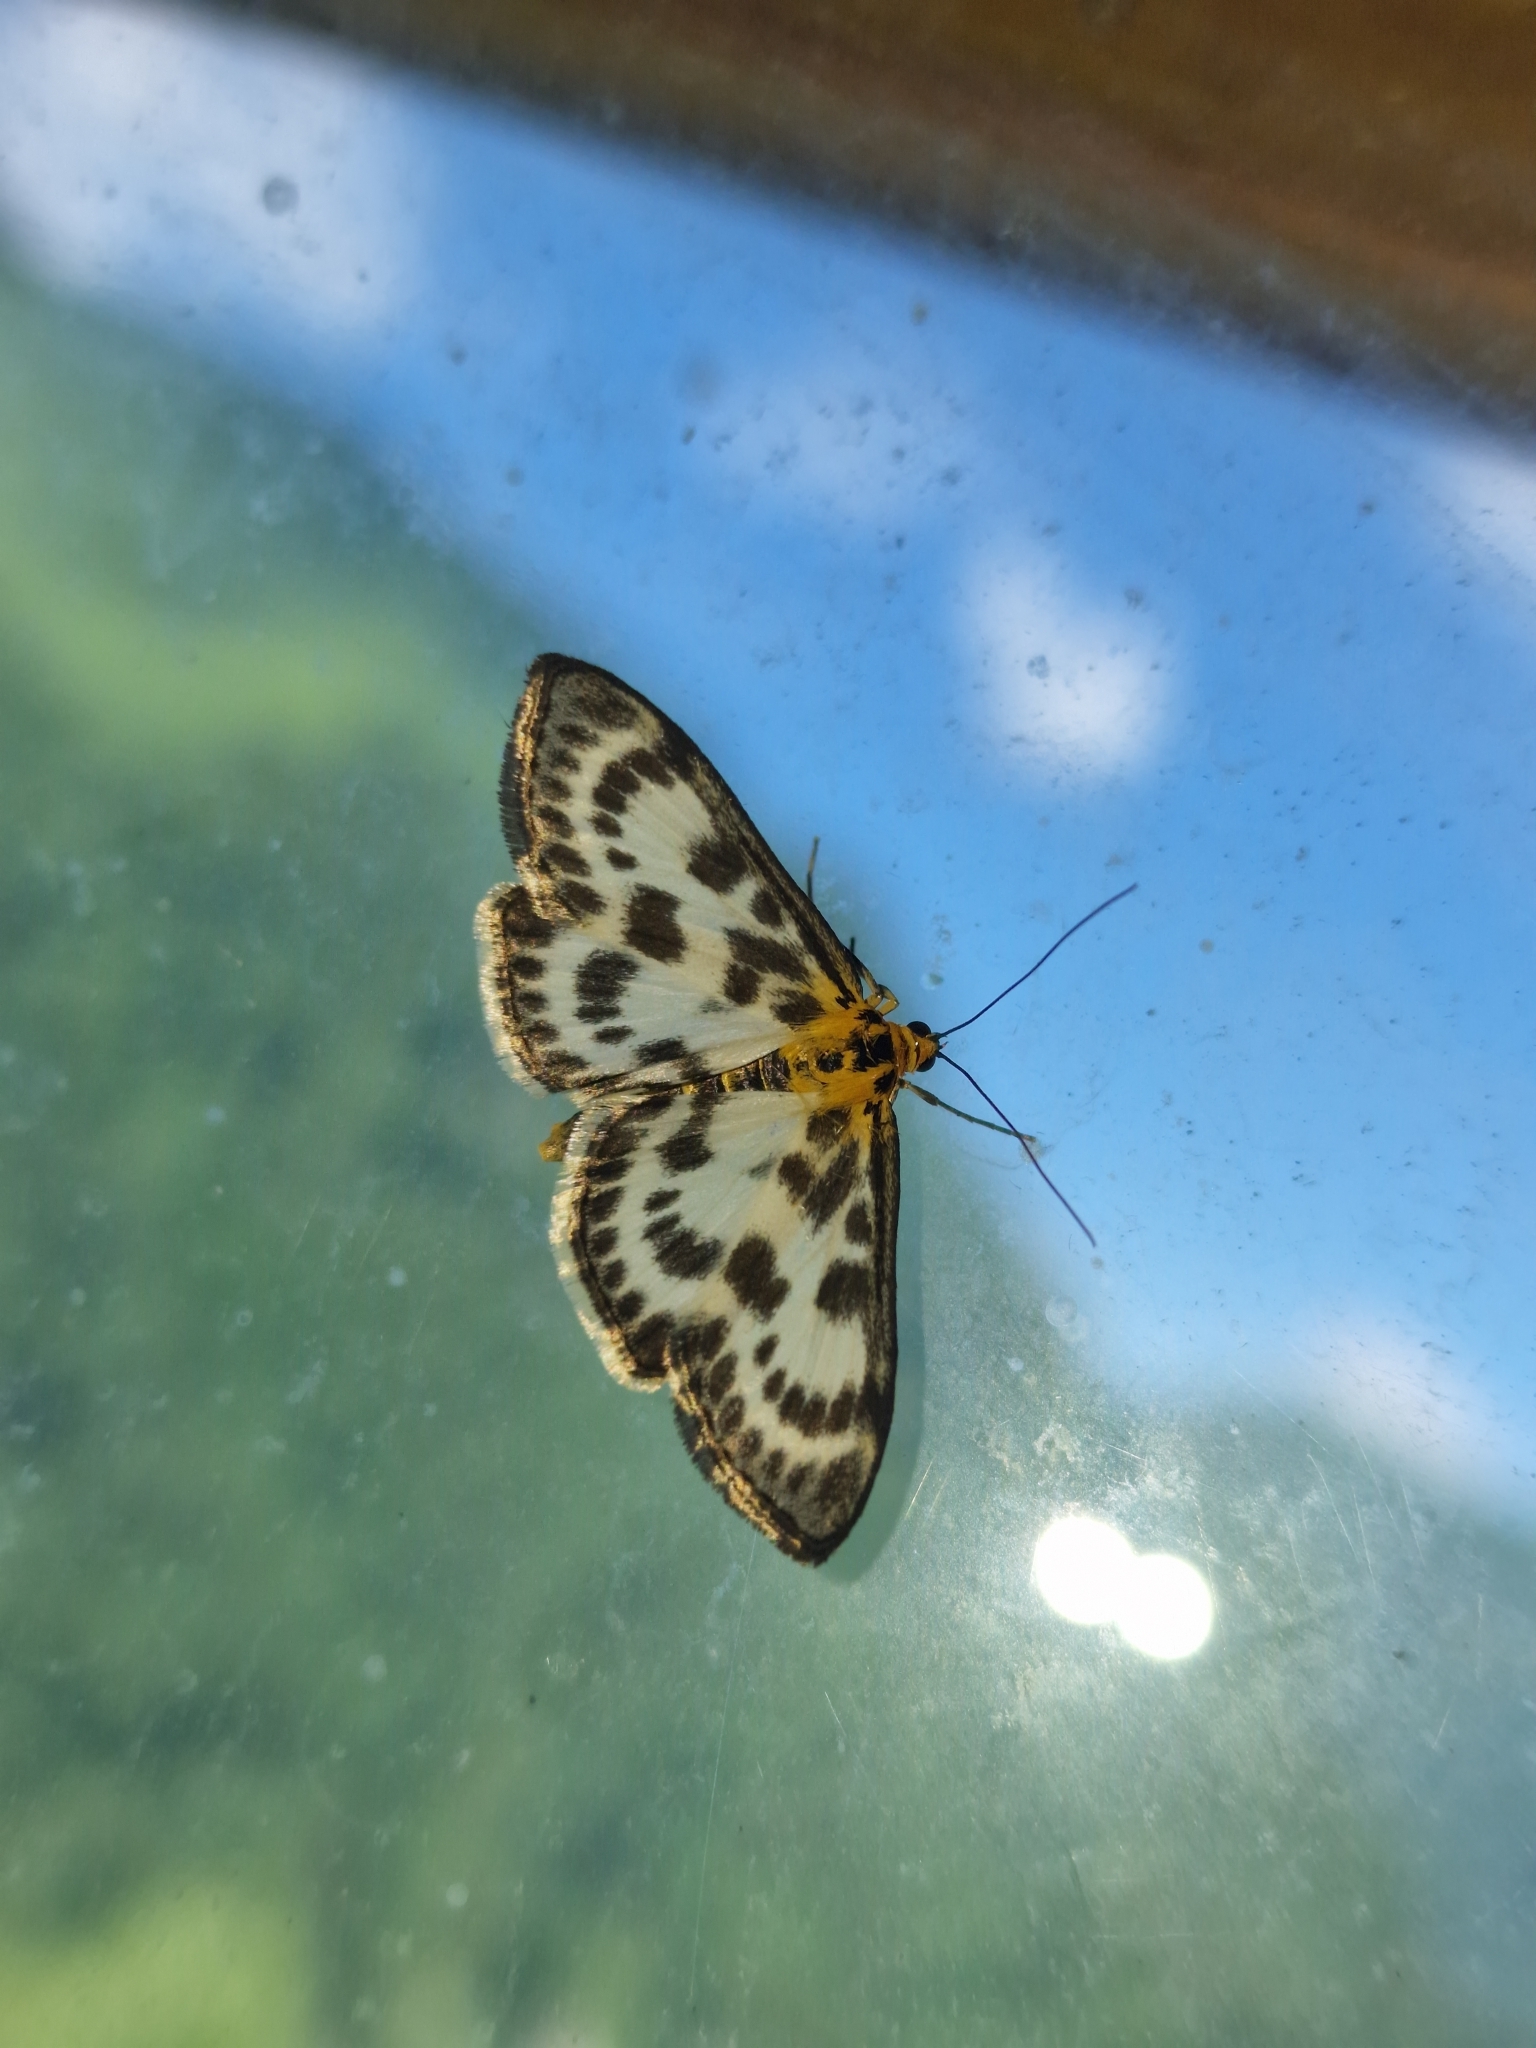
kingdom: Animalia
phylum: Arthropoda
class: Insecta
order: Lepidoptera
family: Crambidae
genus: Anania
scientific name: Anania hortulata
